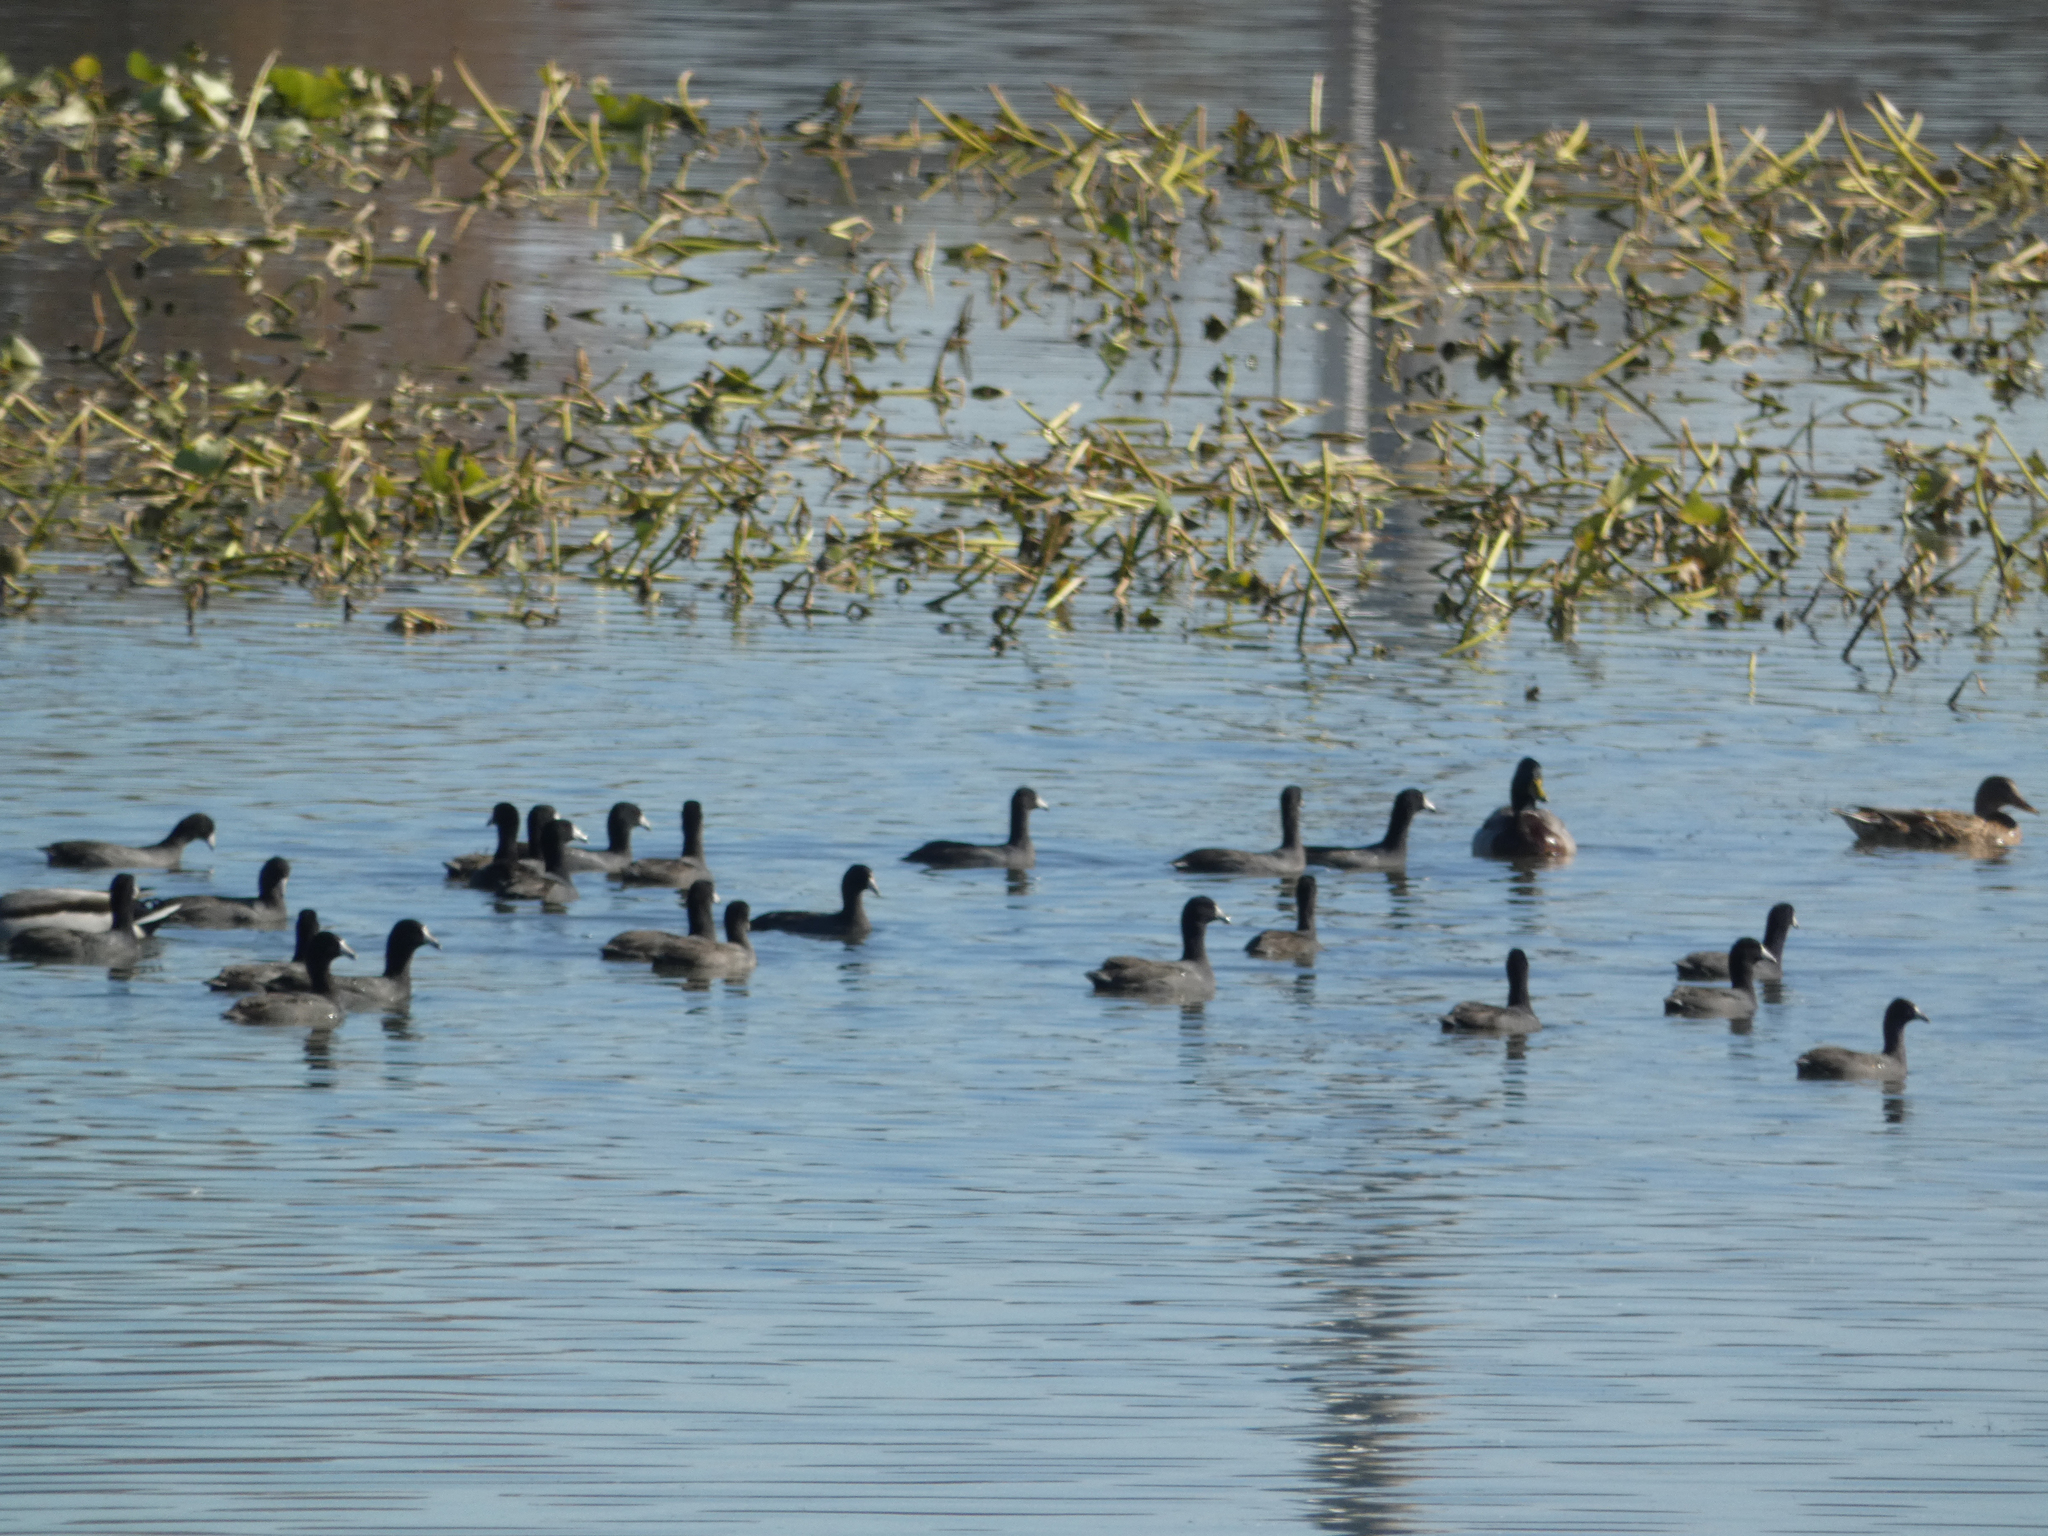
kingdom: Animalia
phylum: Chordata
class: Aves
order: Gruiformes
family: Rallidae
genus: Fulica
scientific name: Fulica americana
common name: American coot
